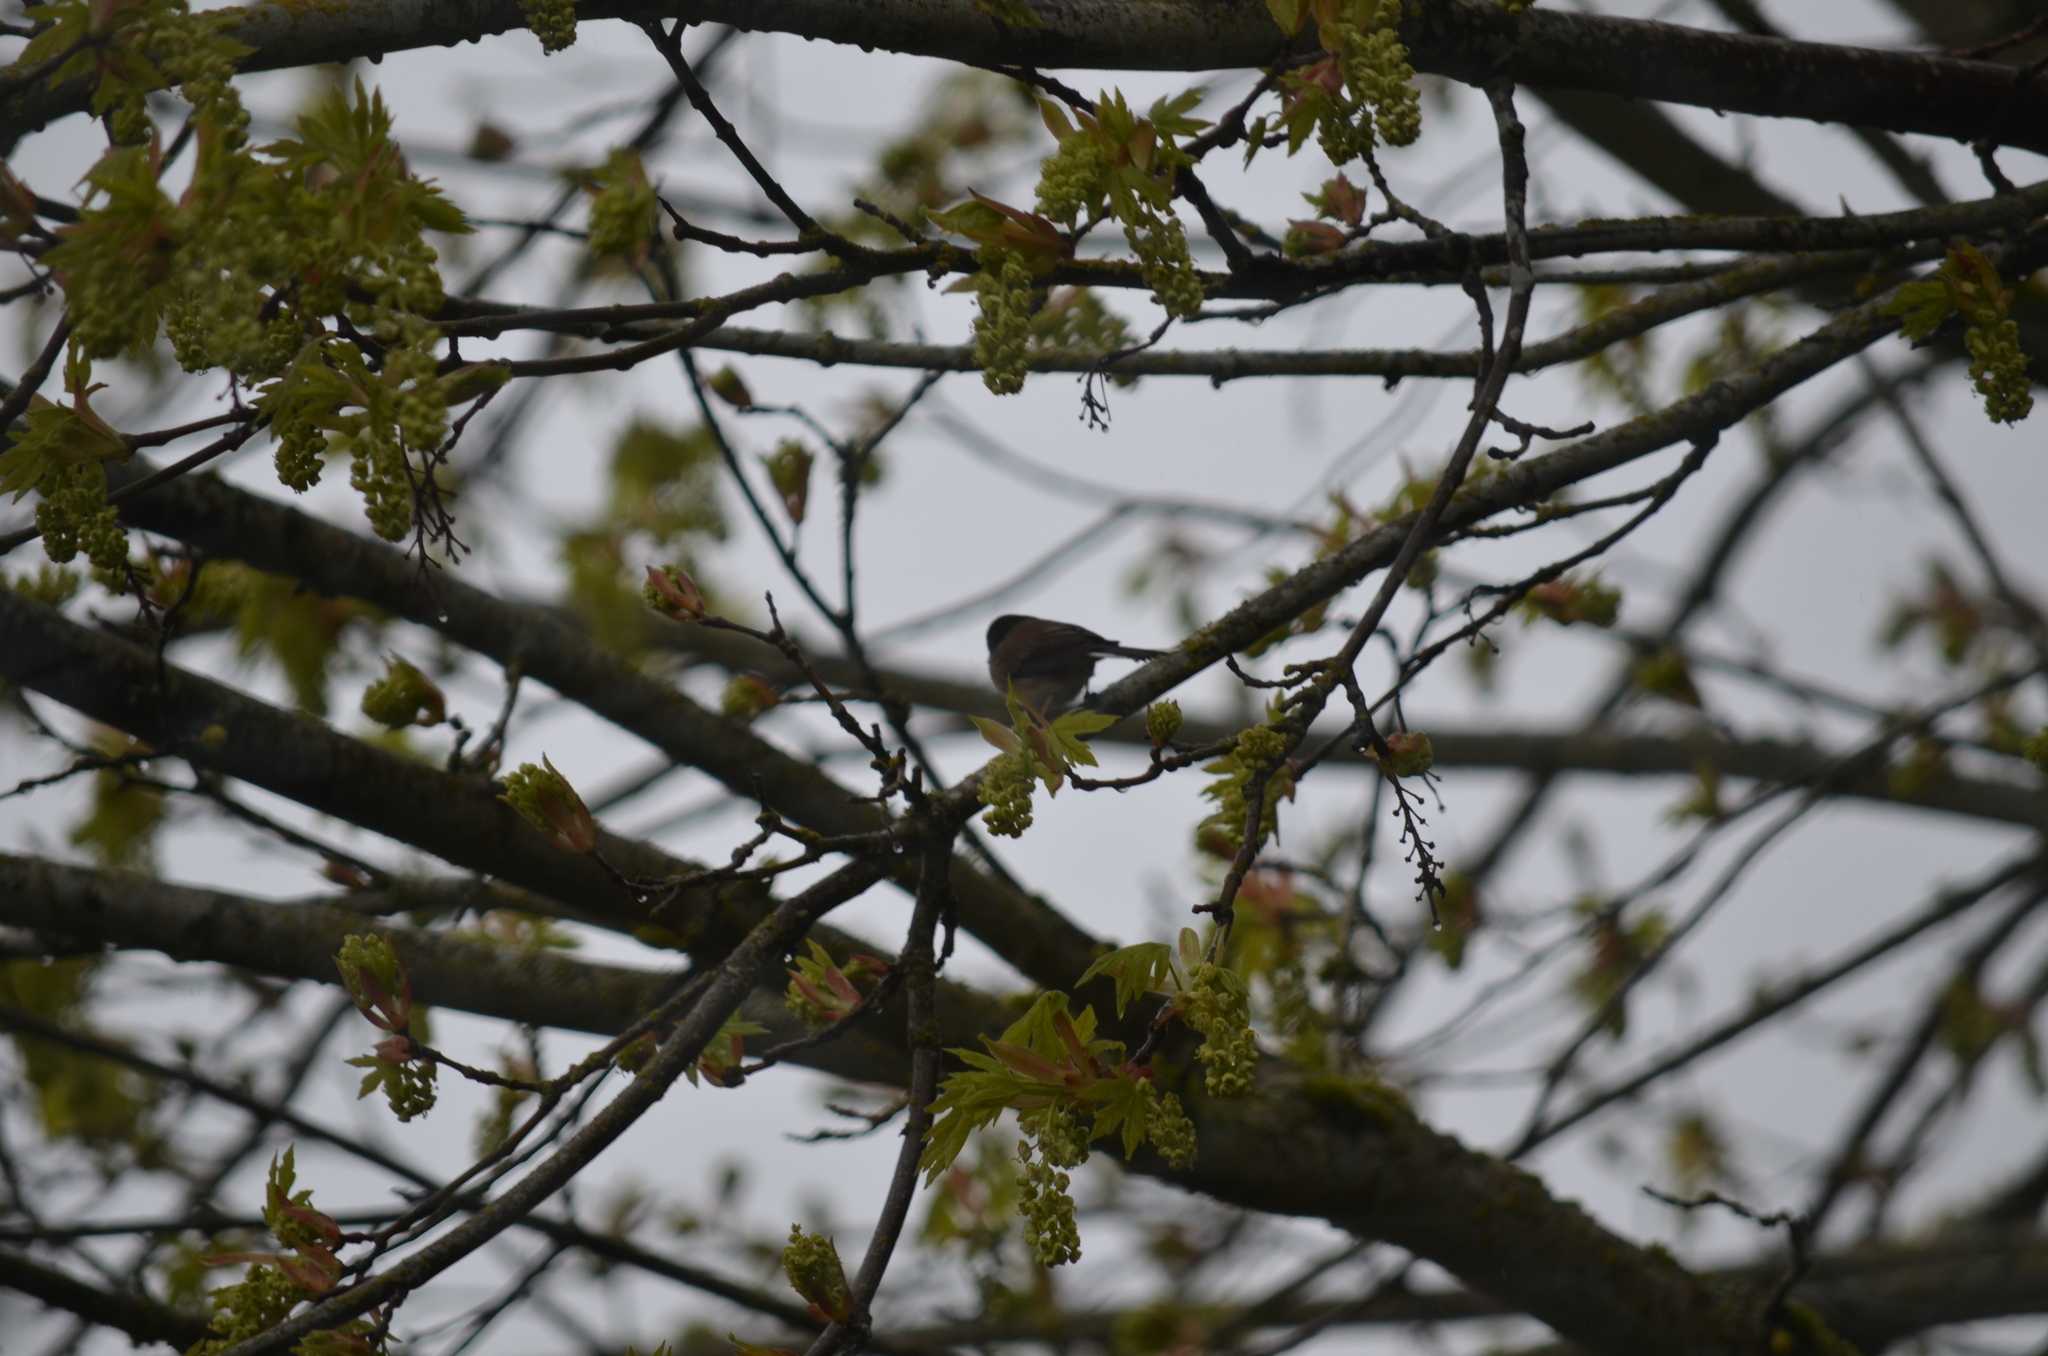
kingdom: Animalia
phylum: Chordata
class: Aves
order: Passeriformes
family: Passerellidae
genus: Junco
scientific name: Junco hyemalis
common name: Dark-eyed junco
